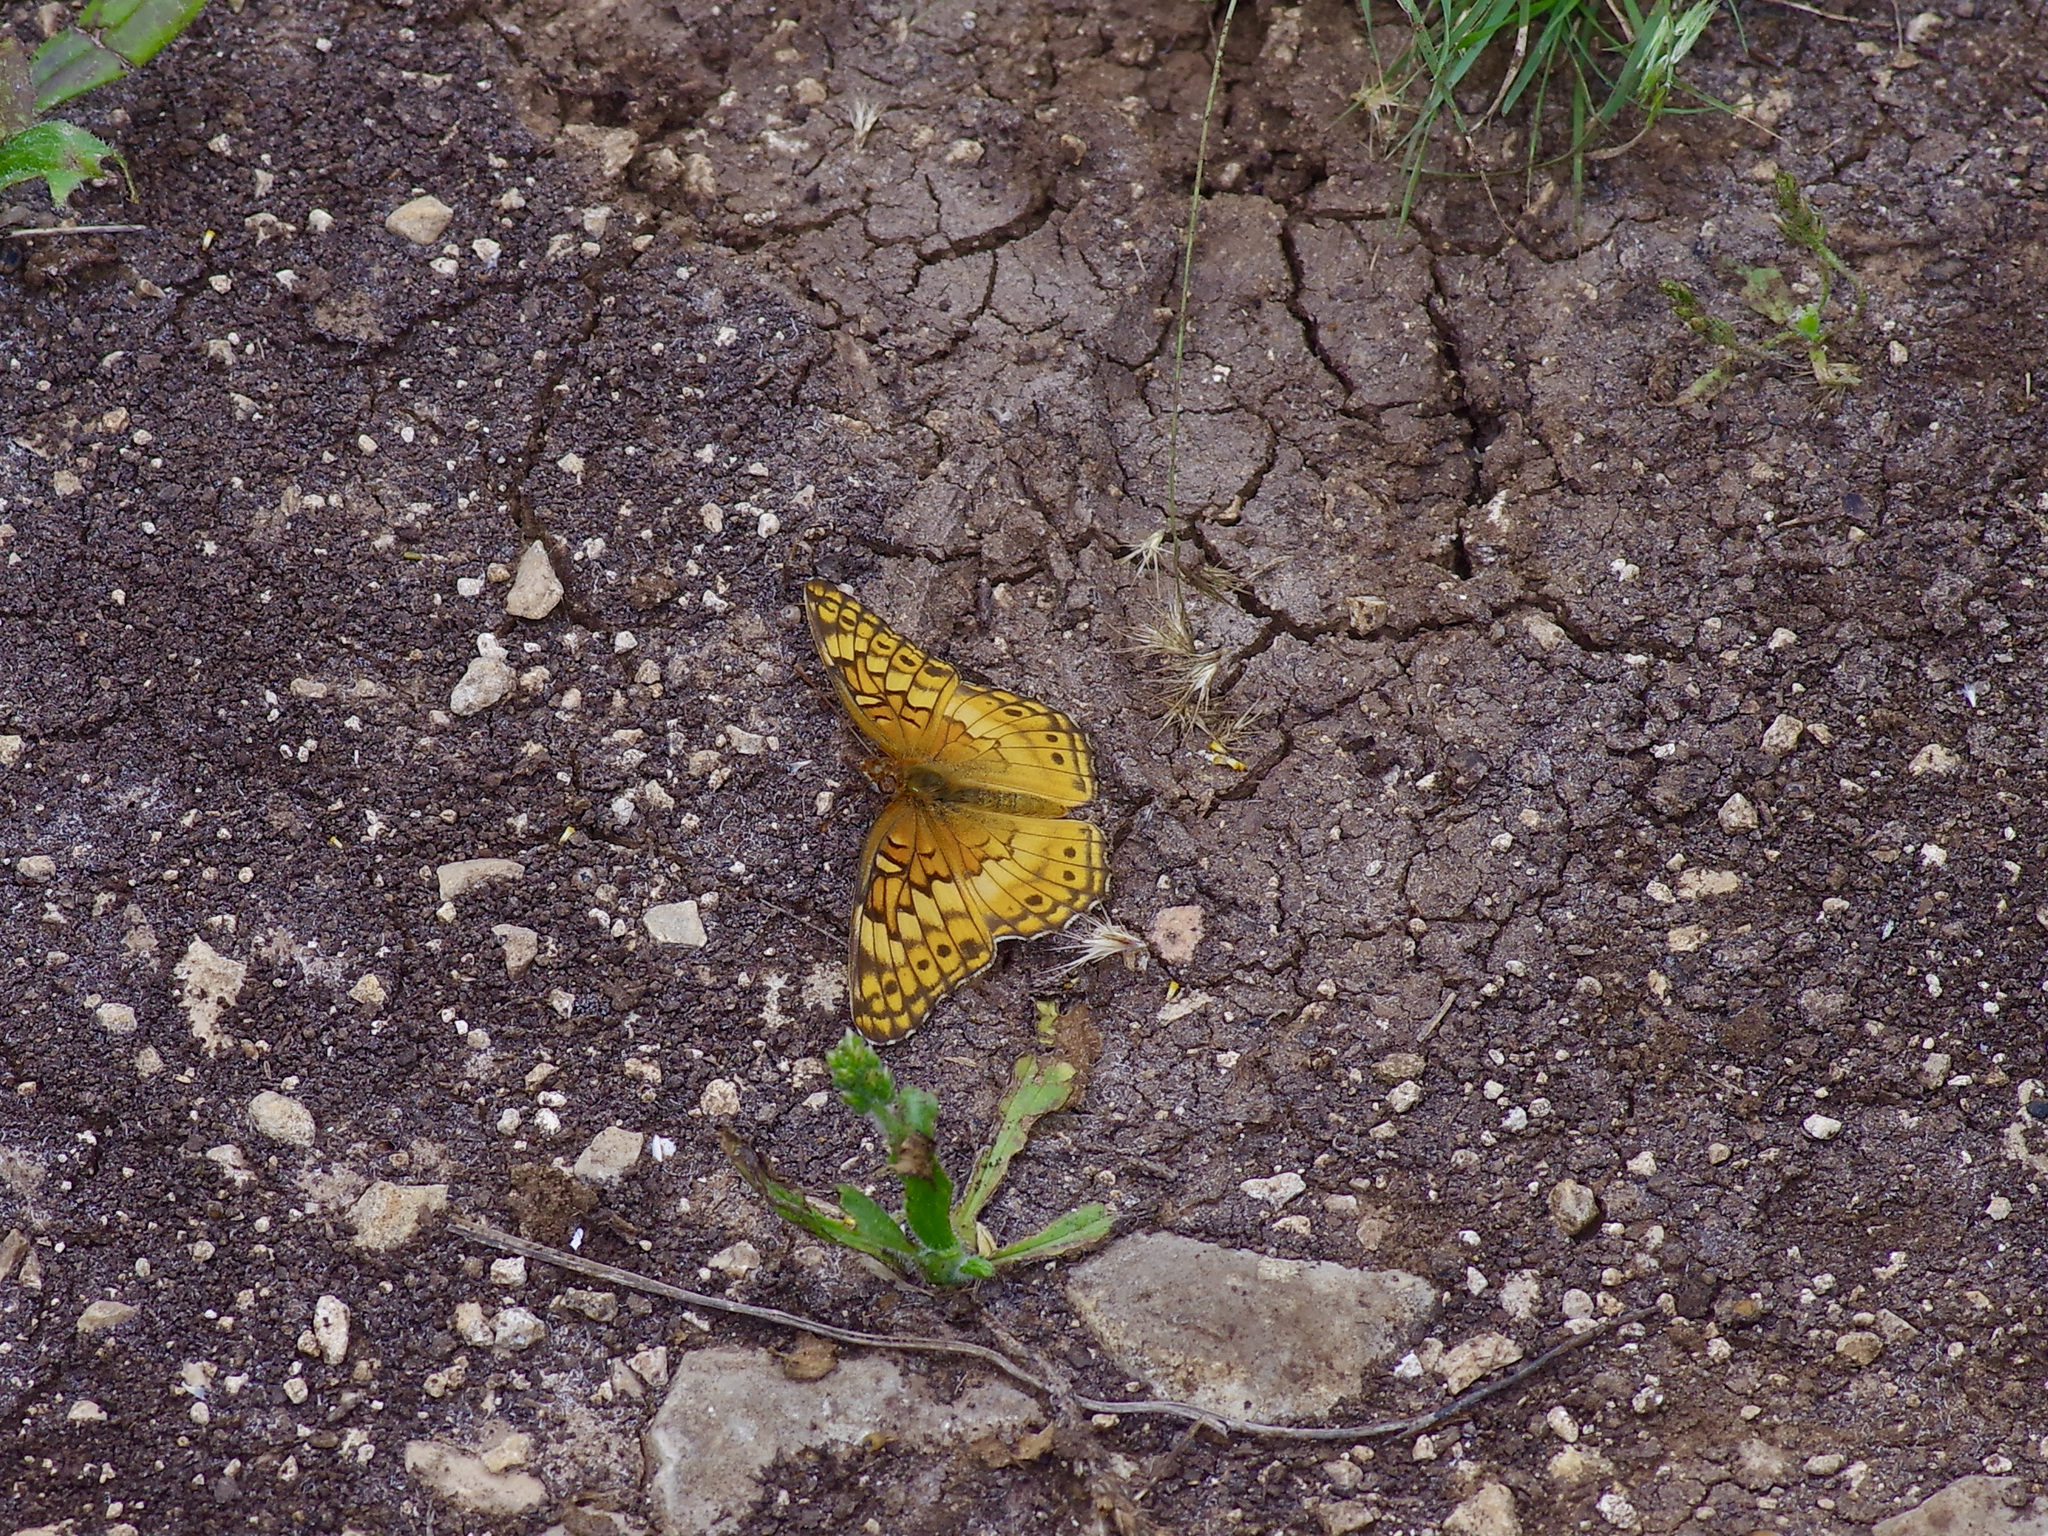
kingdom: Animalia
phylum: Arthropoda
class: Insecta
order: Lepidoptera
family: Nymphalidae
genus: Euptoieta
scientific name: Euptoieta claudia
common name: Variegated fritillary
